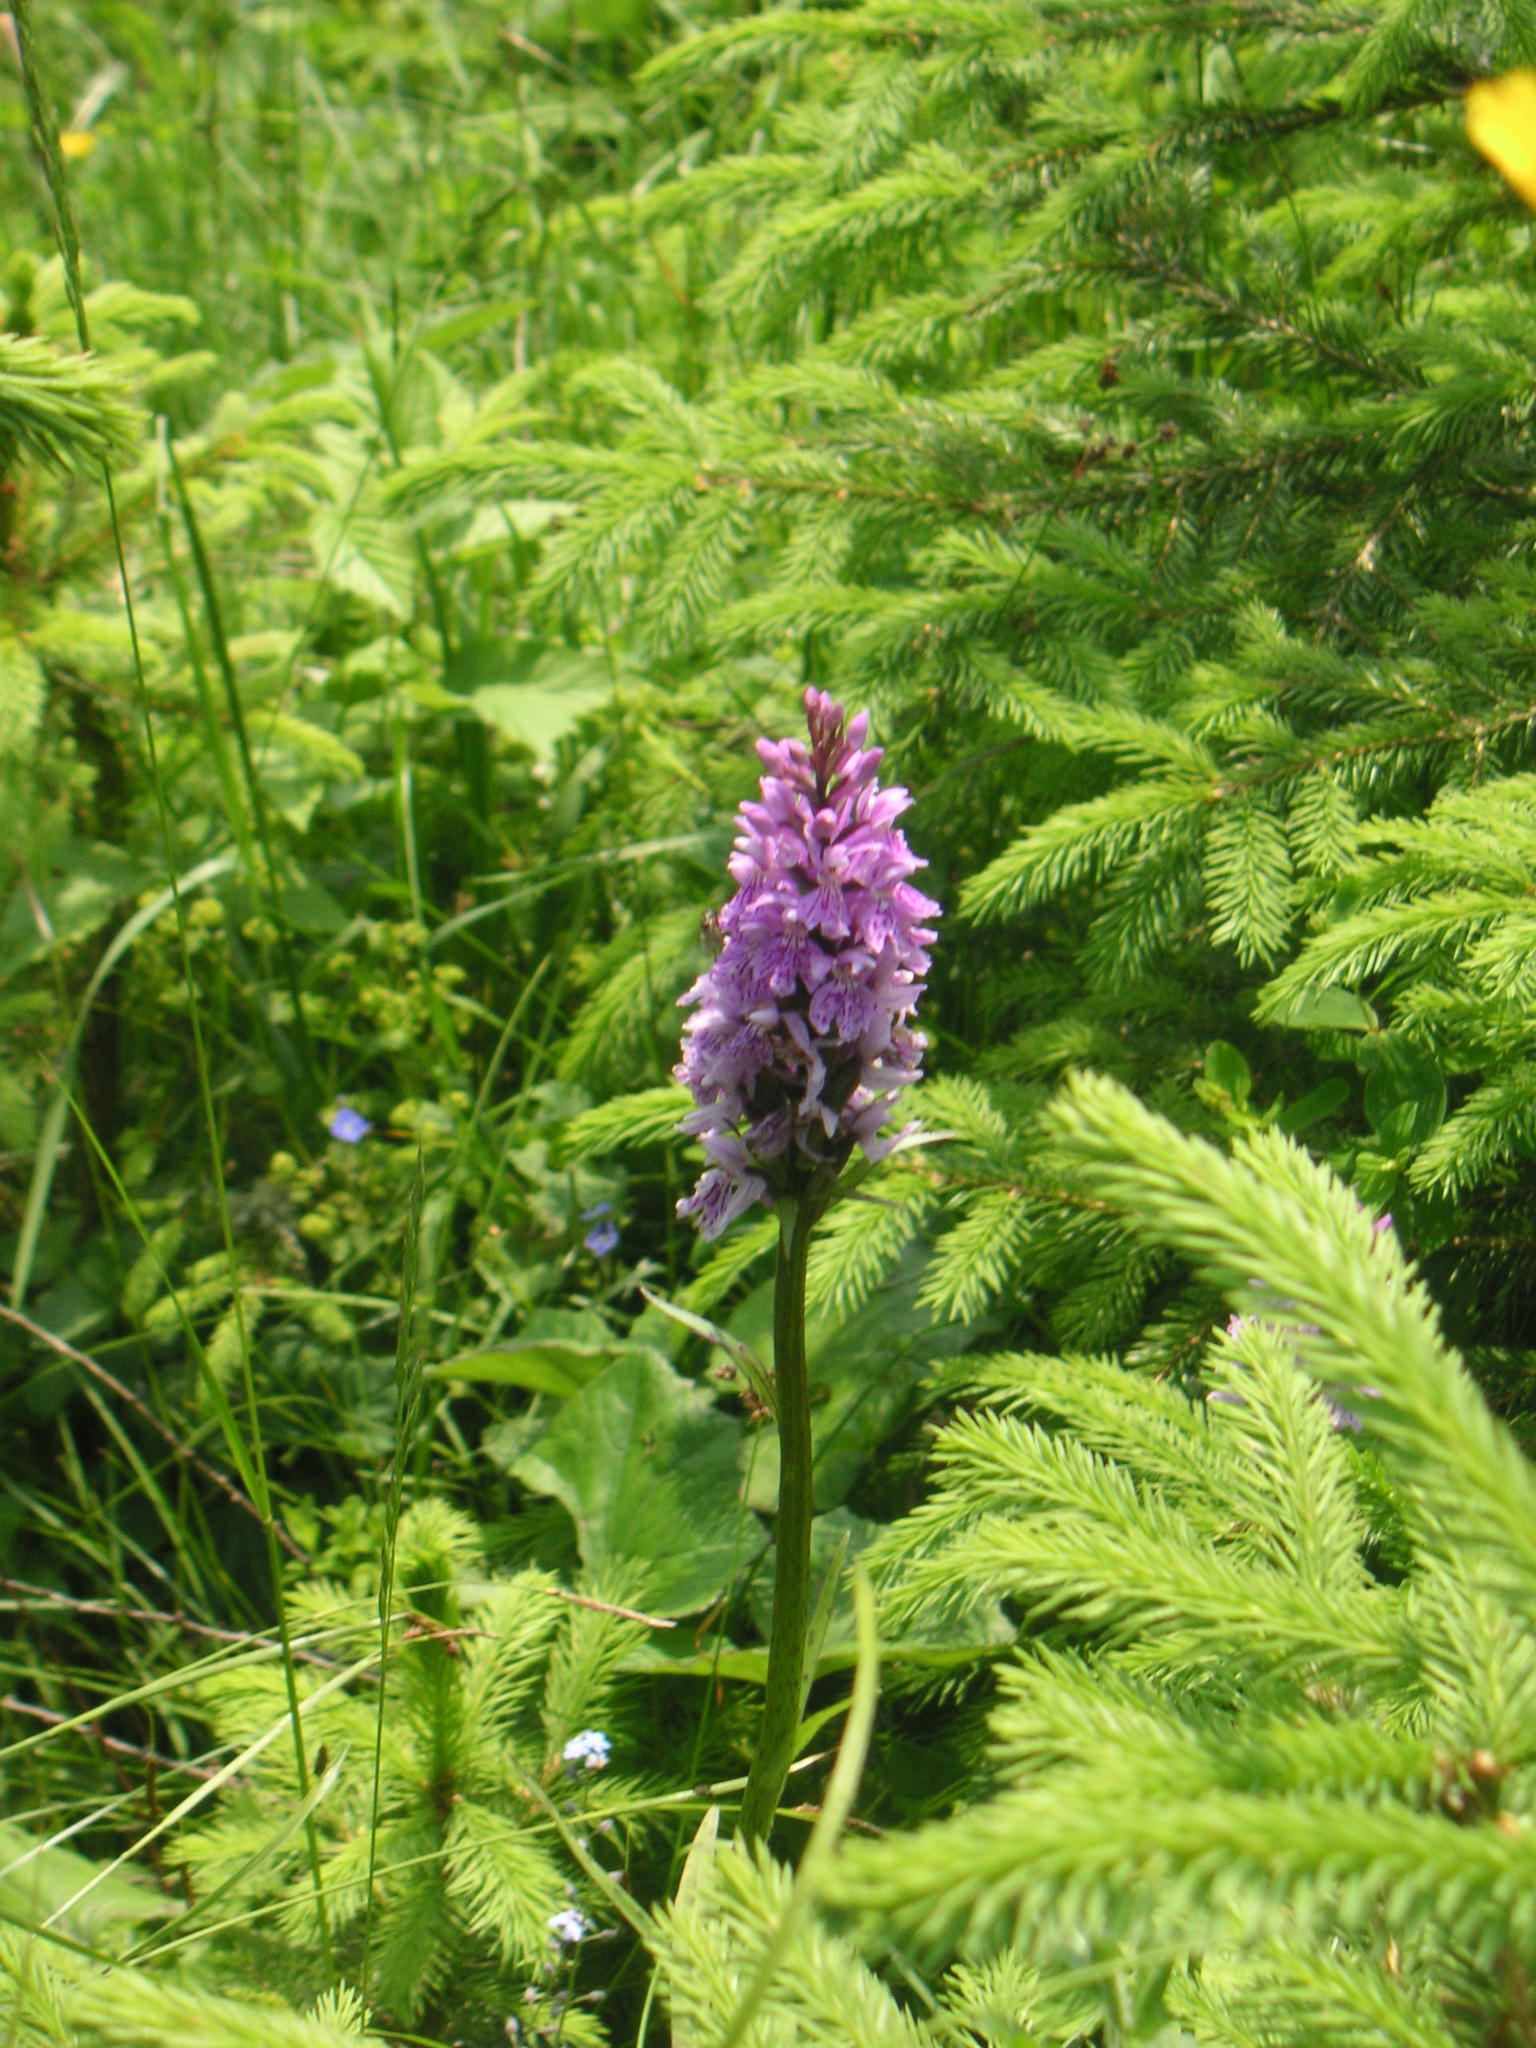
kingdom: Plantae
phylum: Tracheophyta
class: Liliopsida
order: Asparagales
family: Orchidaceae
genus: Dactylorhiza
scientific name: Dactylorhiza maculata
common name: Heath spotted-orchid
